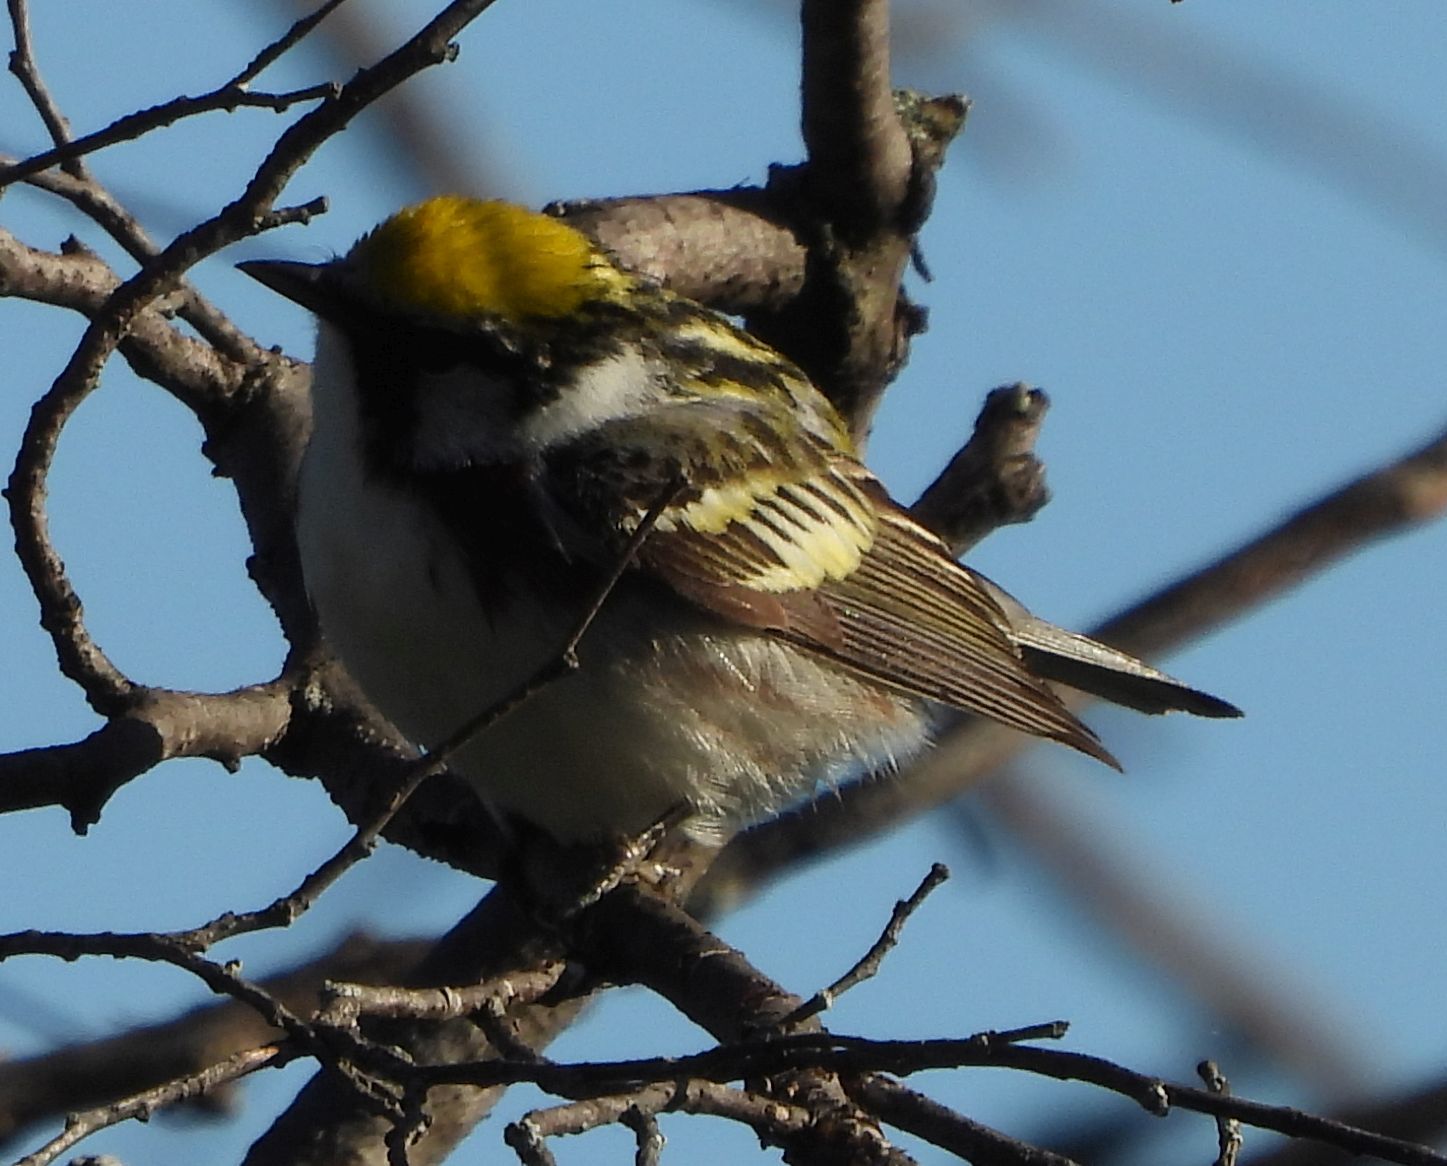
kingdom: Animalia
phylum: Chordata
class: Aves
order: Passeriformes
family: Parulidae
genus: Setophaga
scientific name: Setophaga pensylvanica
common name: Chestnut-sided warbler
